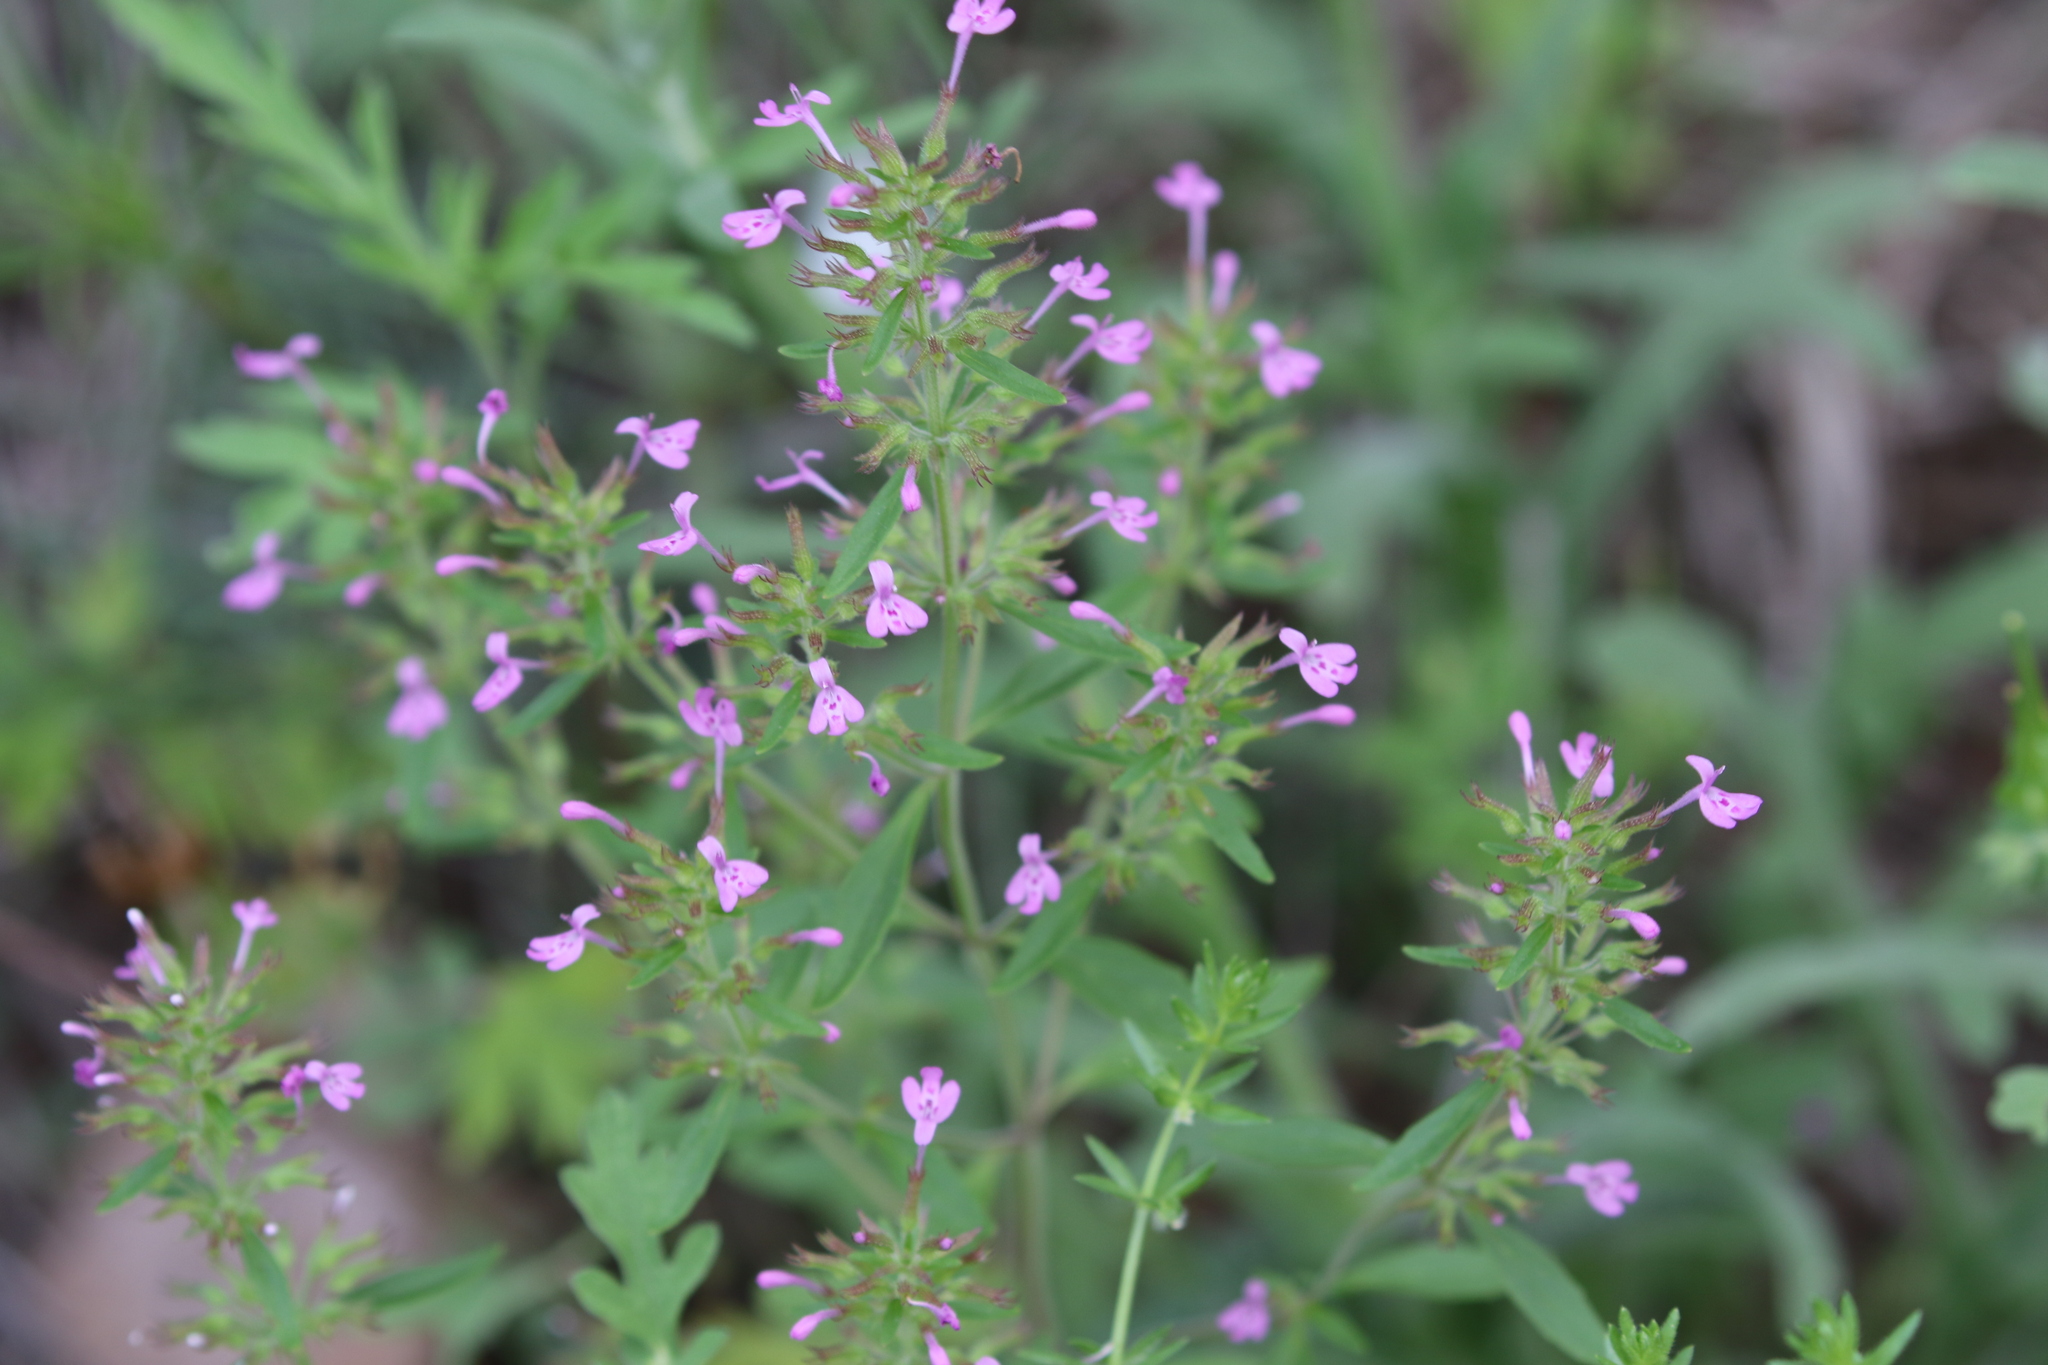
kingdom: Plantae
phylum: Tracheophyta
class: Magnoliopsida
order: Lamiales
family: Lamiaceae
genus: Hedeoma
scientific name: Hedeoma acinoides
